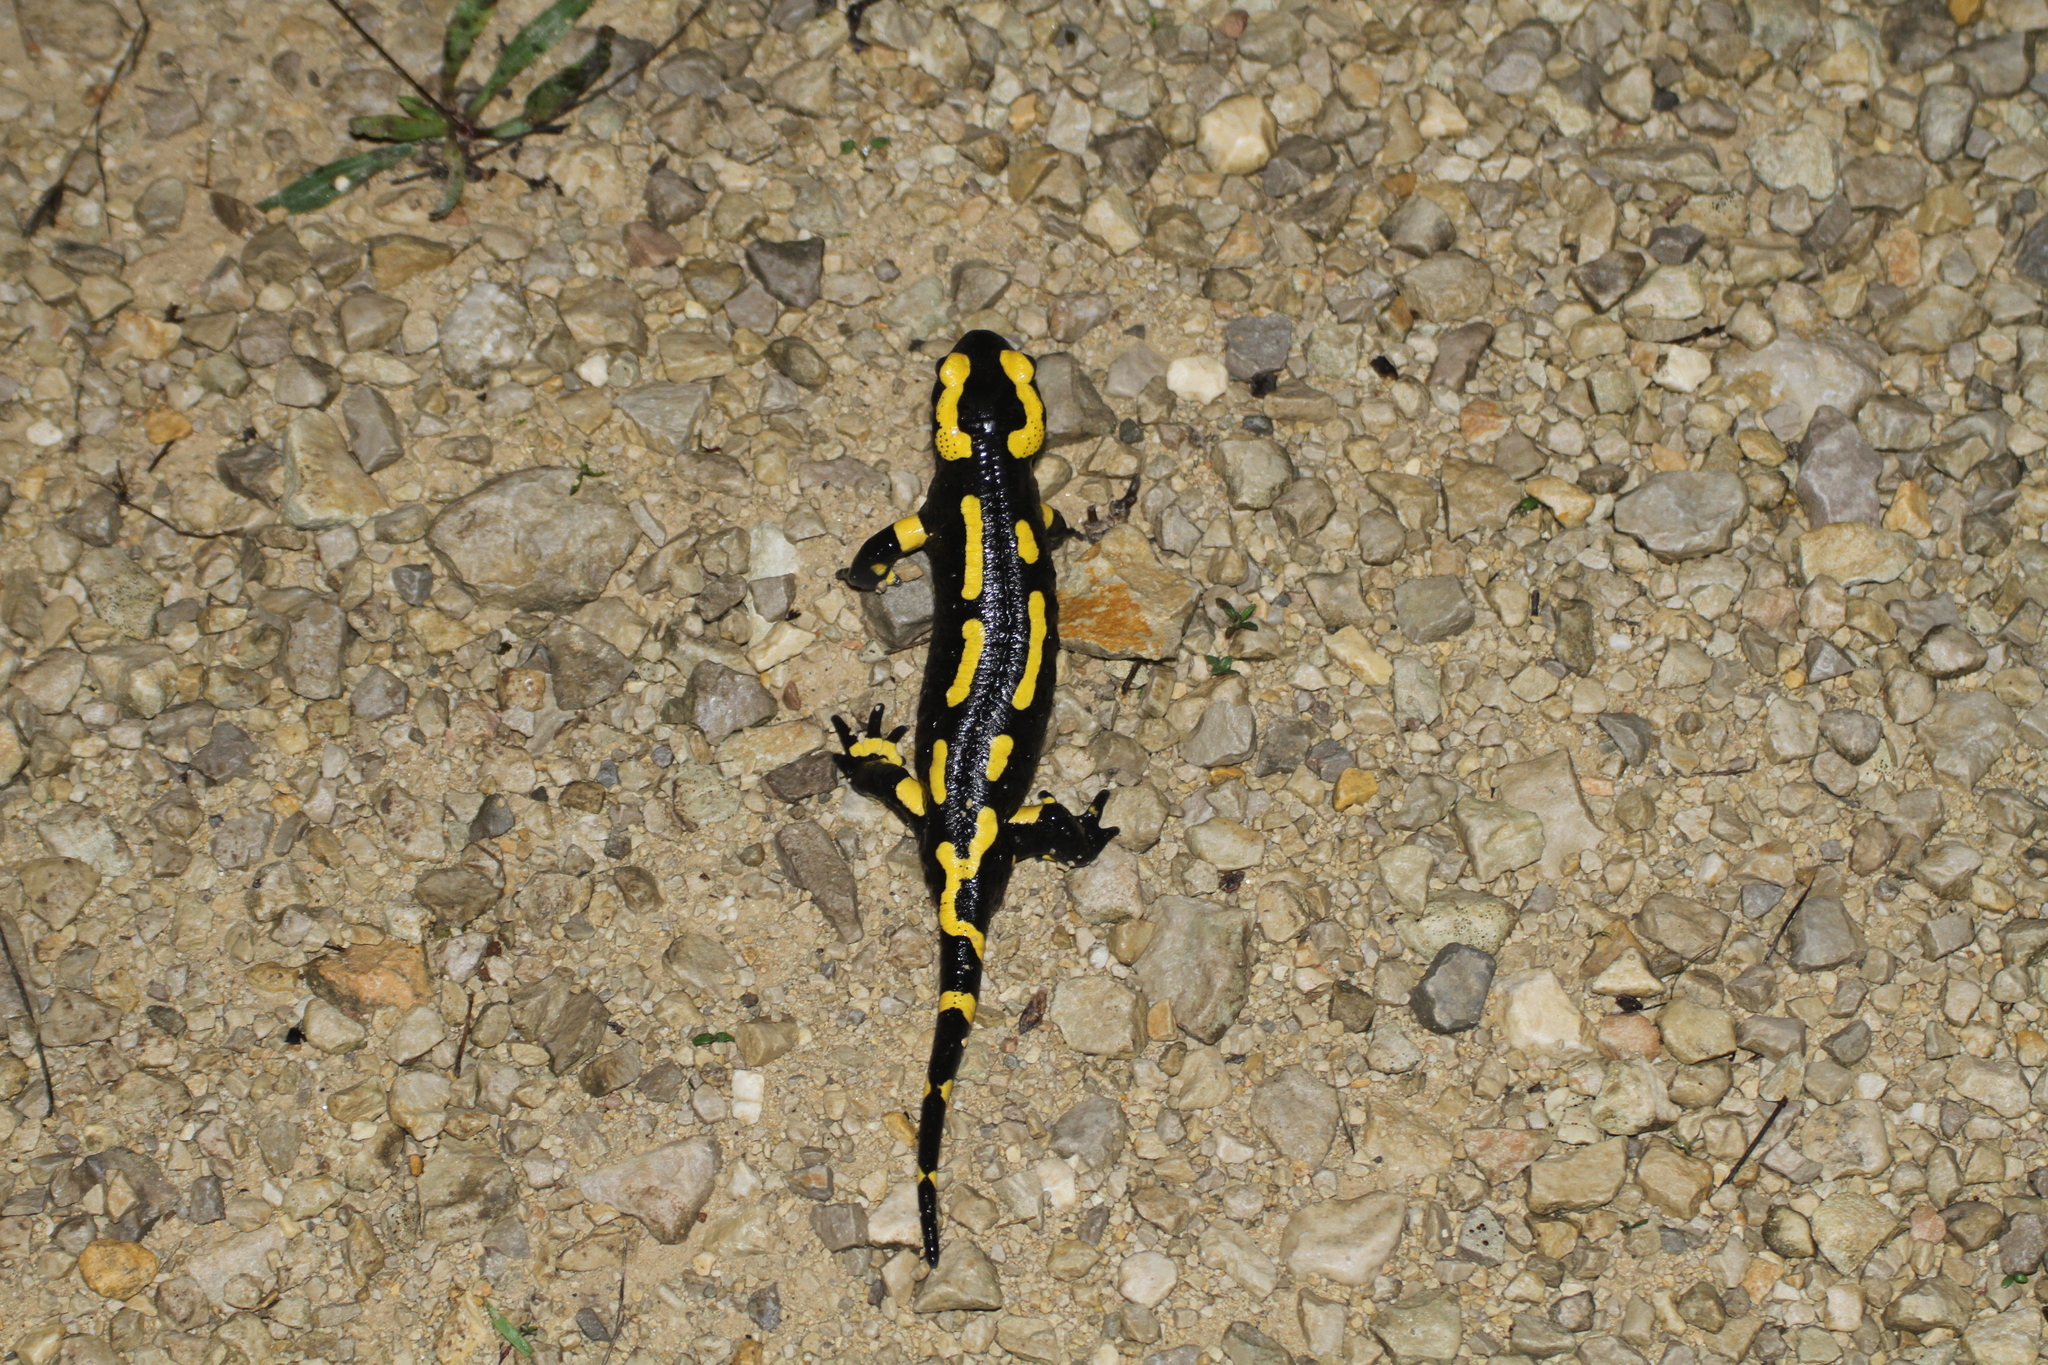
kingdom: Animalia
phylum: Chordata
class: Amphibia
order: Caudata
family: Salamandridae
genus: Salamandra
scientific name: Salamandra salamandra
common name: Fire salamander
